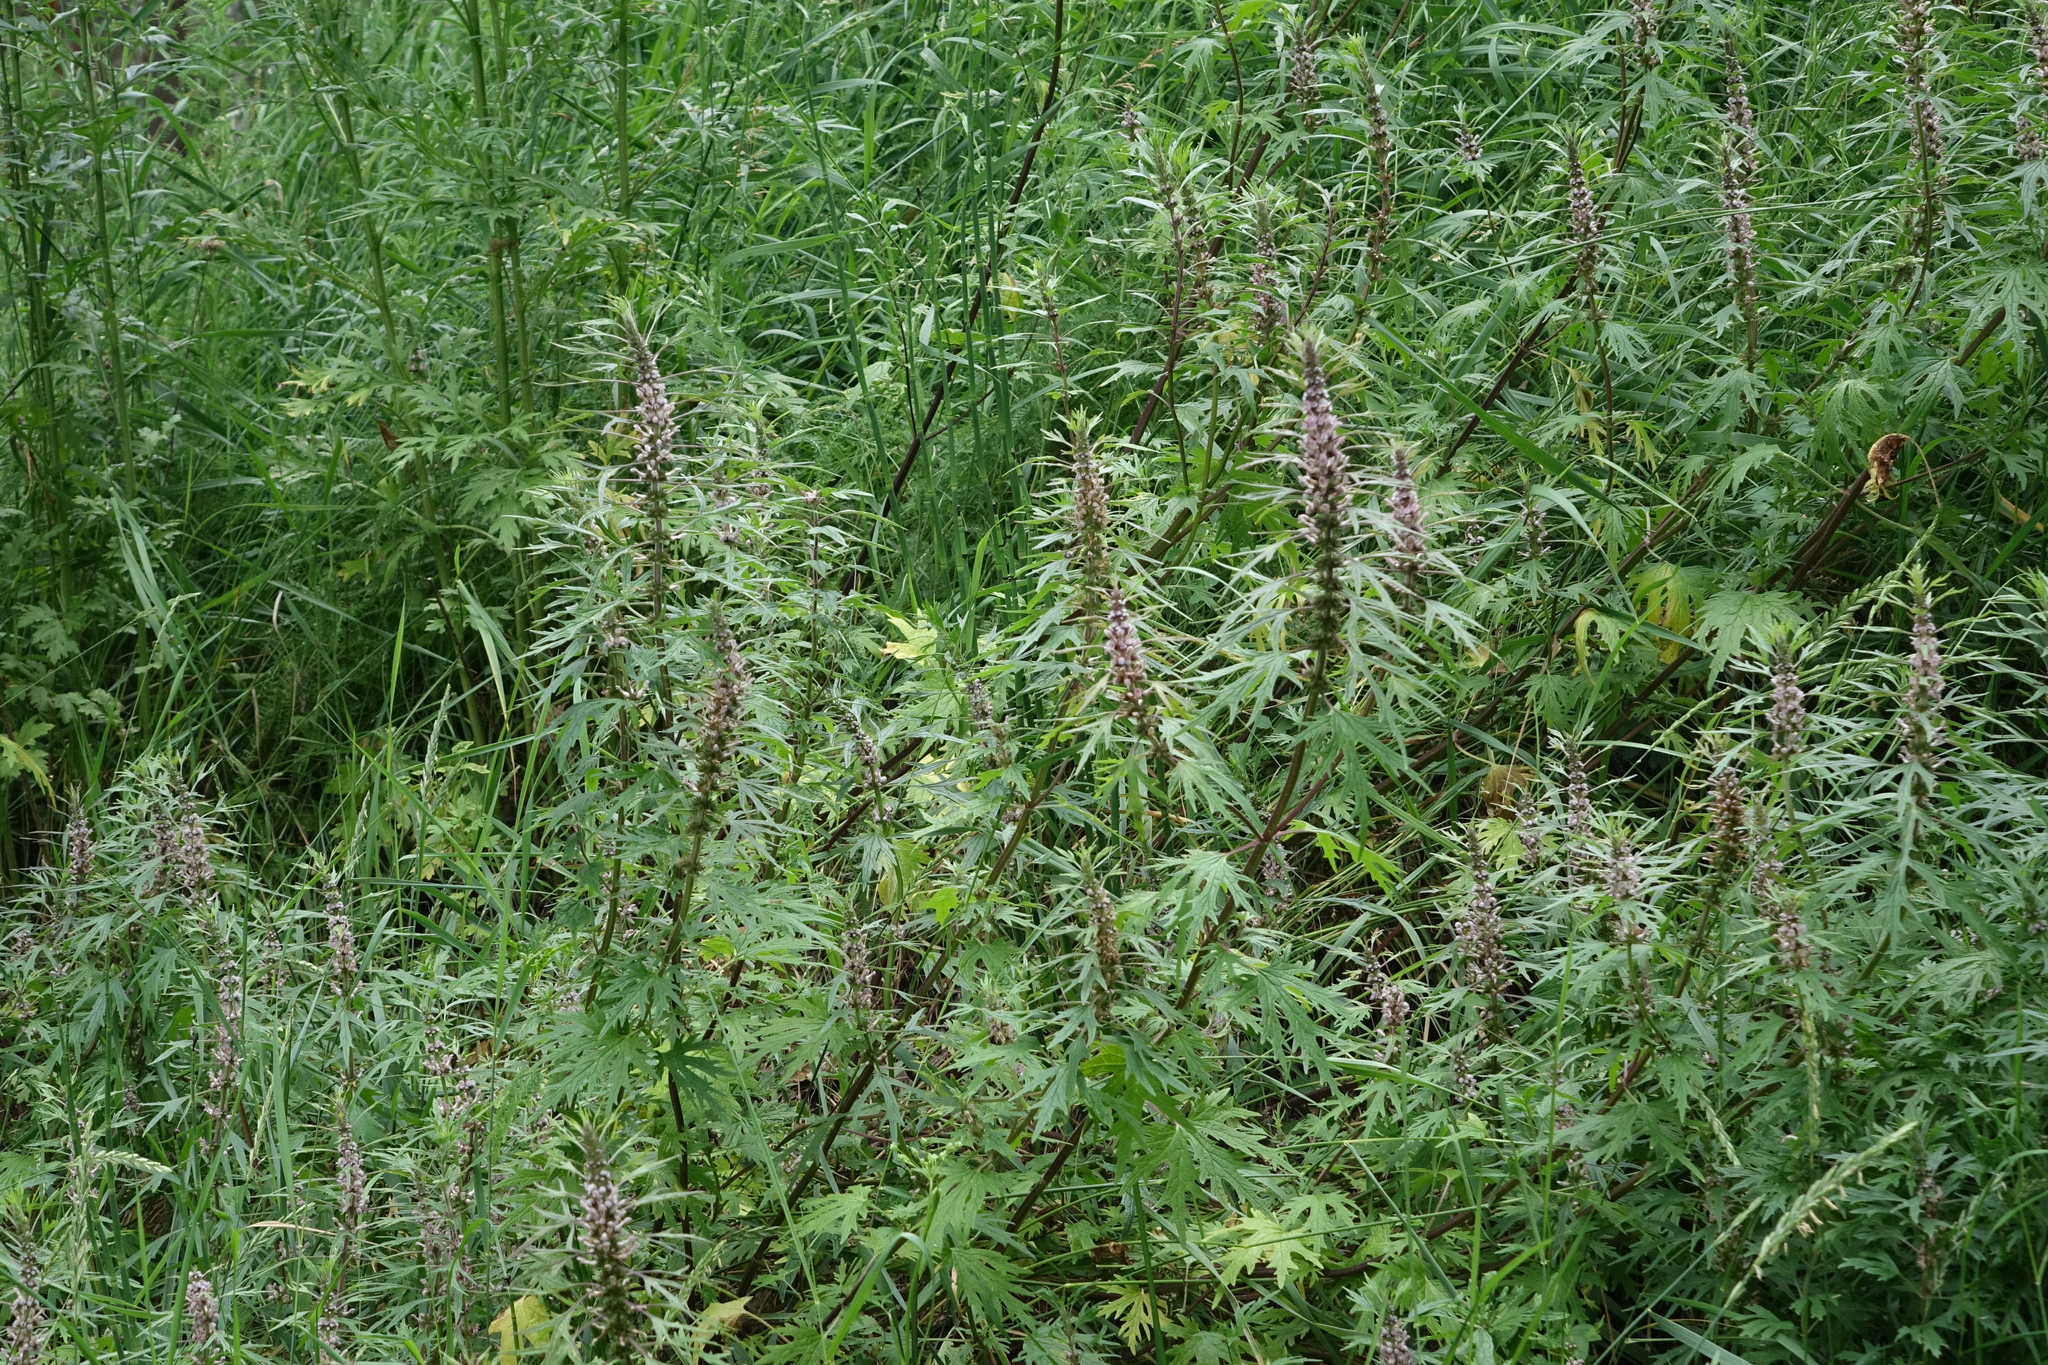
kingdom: Plantae
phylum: Tracheophyta
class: Magnoliopsida
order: Lamiales
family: Lamiaceae
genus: Leonurus
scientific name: Leonurus glaucescens
